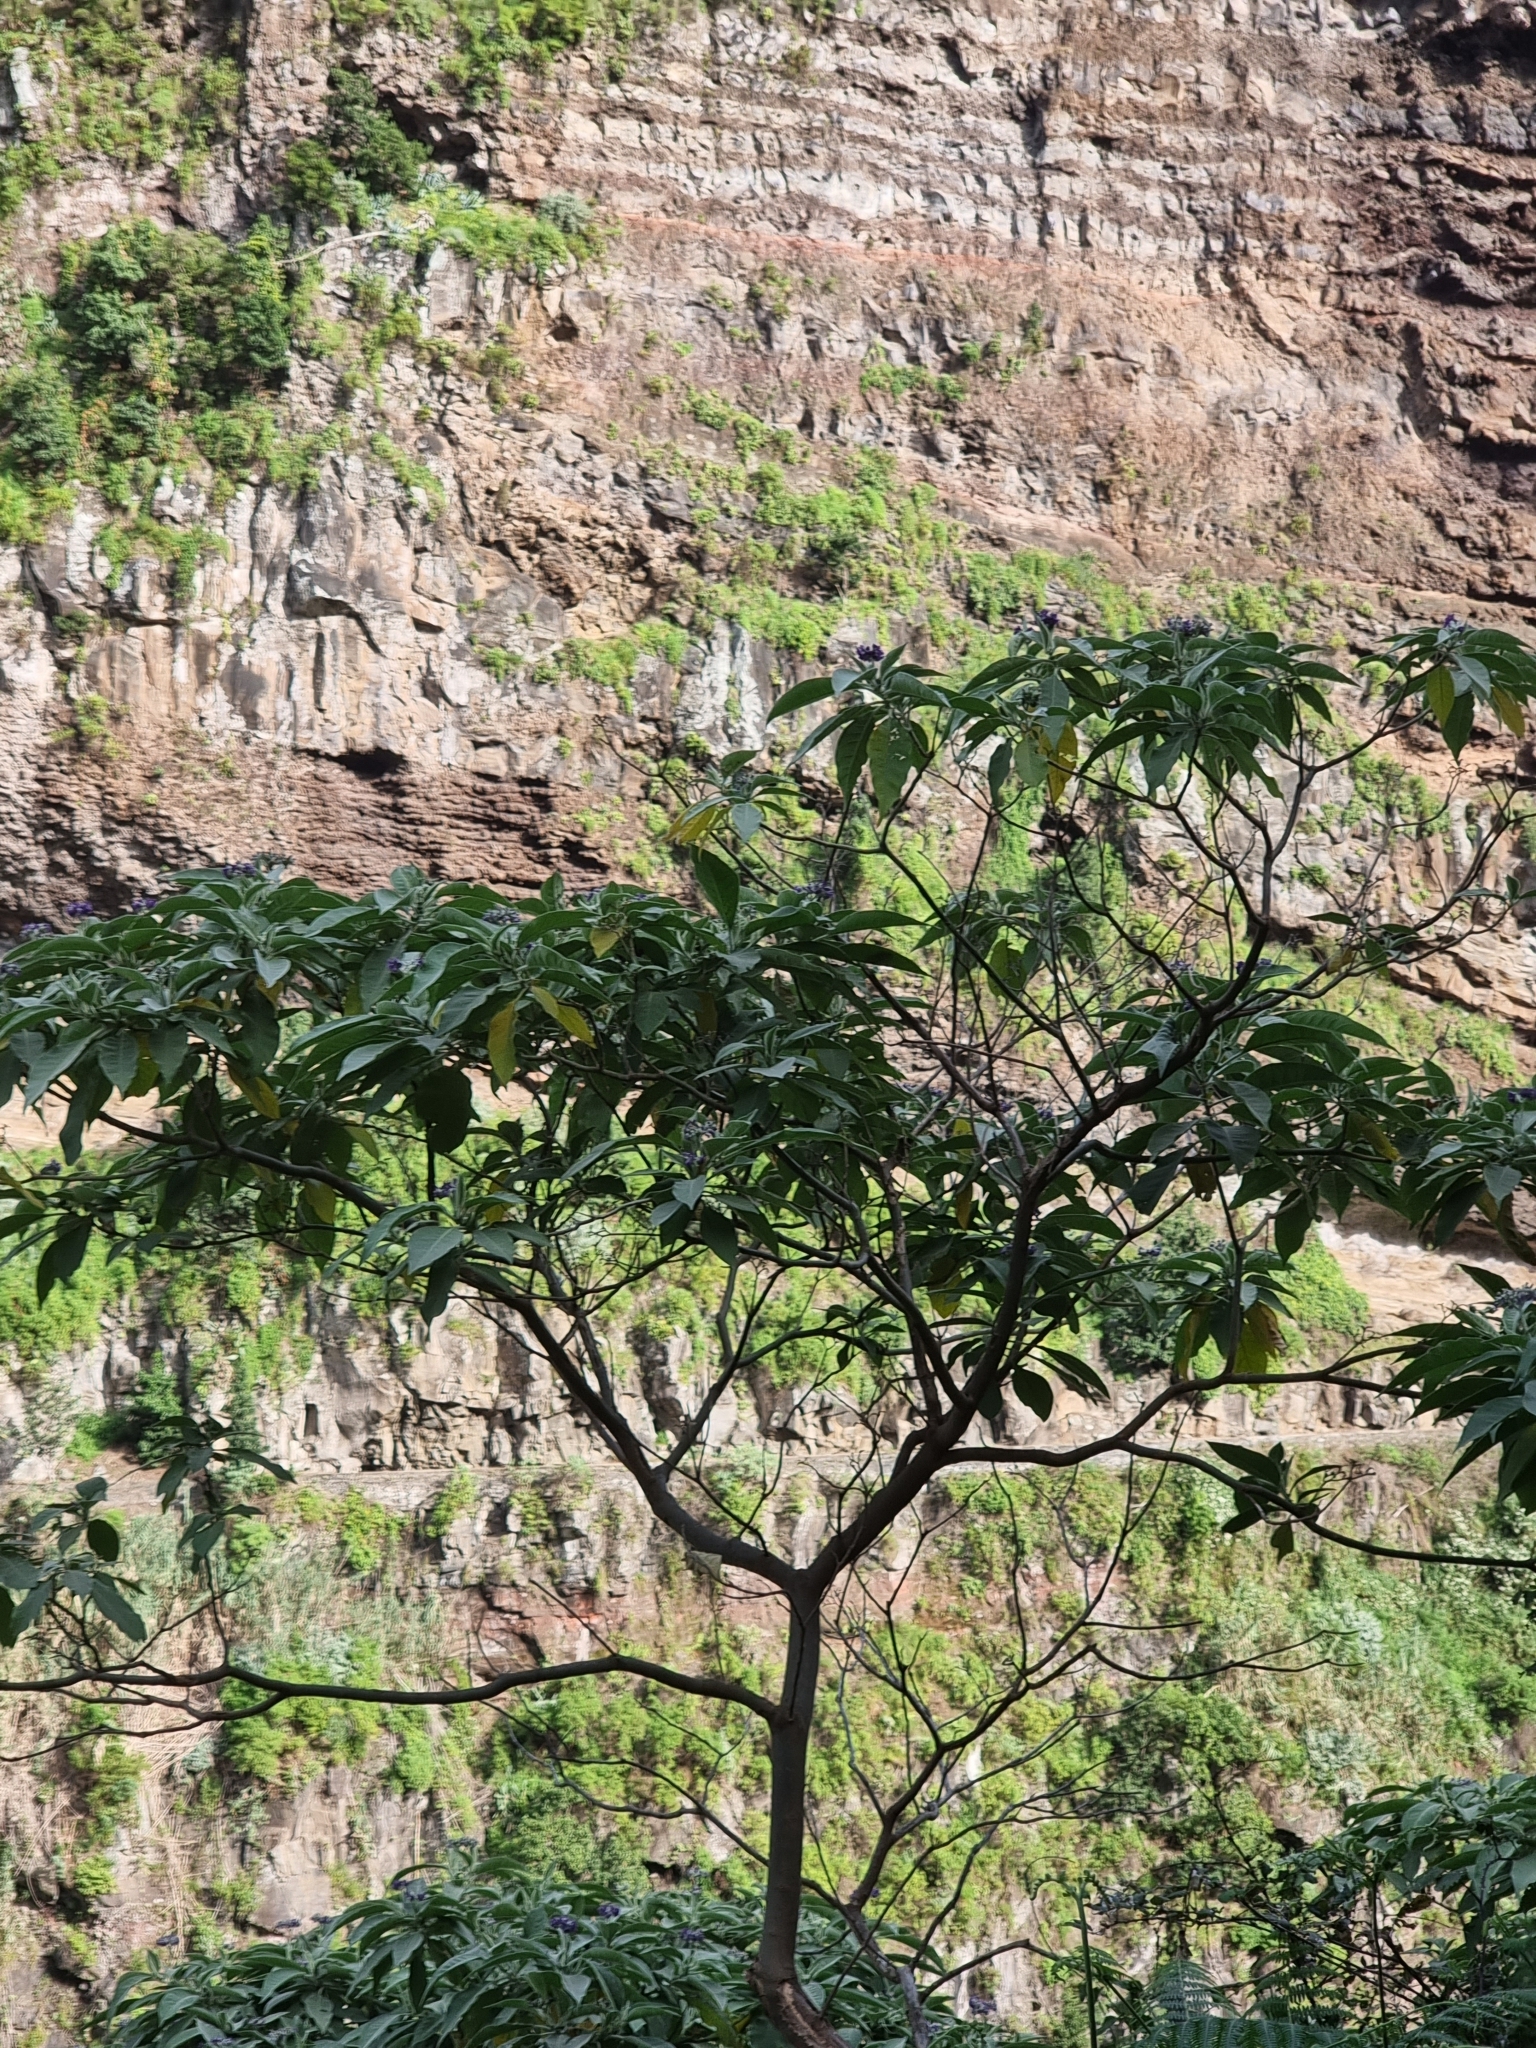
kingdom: Plantae
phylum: Tracheophyta
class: Magnoliopsida
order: Solanales
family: Solanaceae
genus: Solanum
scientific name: Solanum mauritianum
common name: Earleaf nightshade
